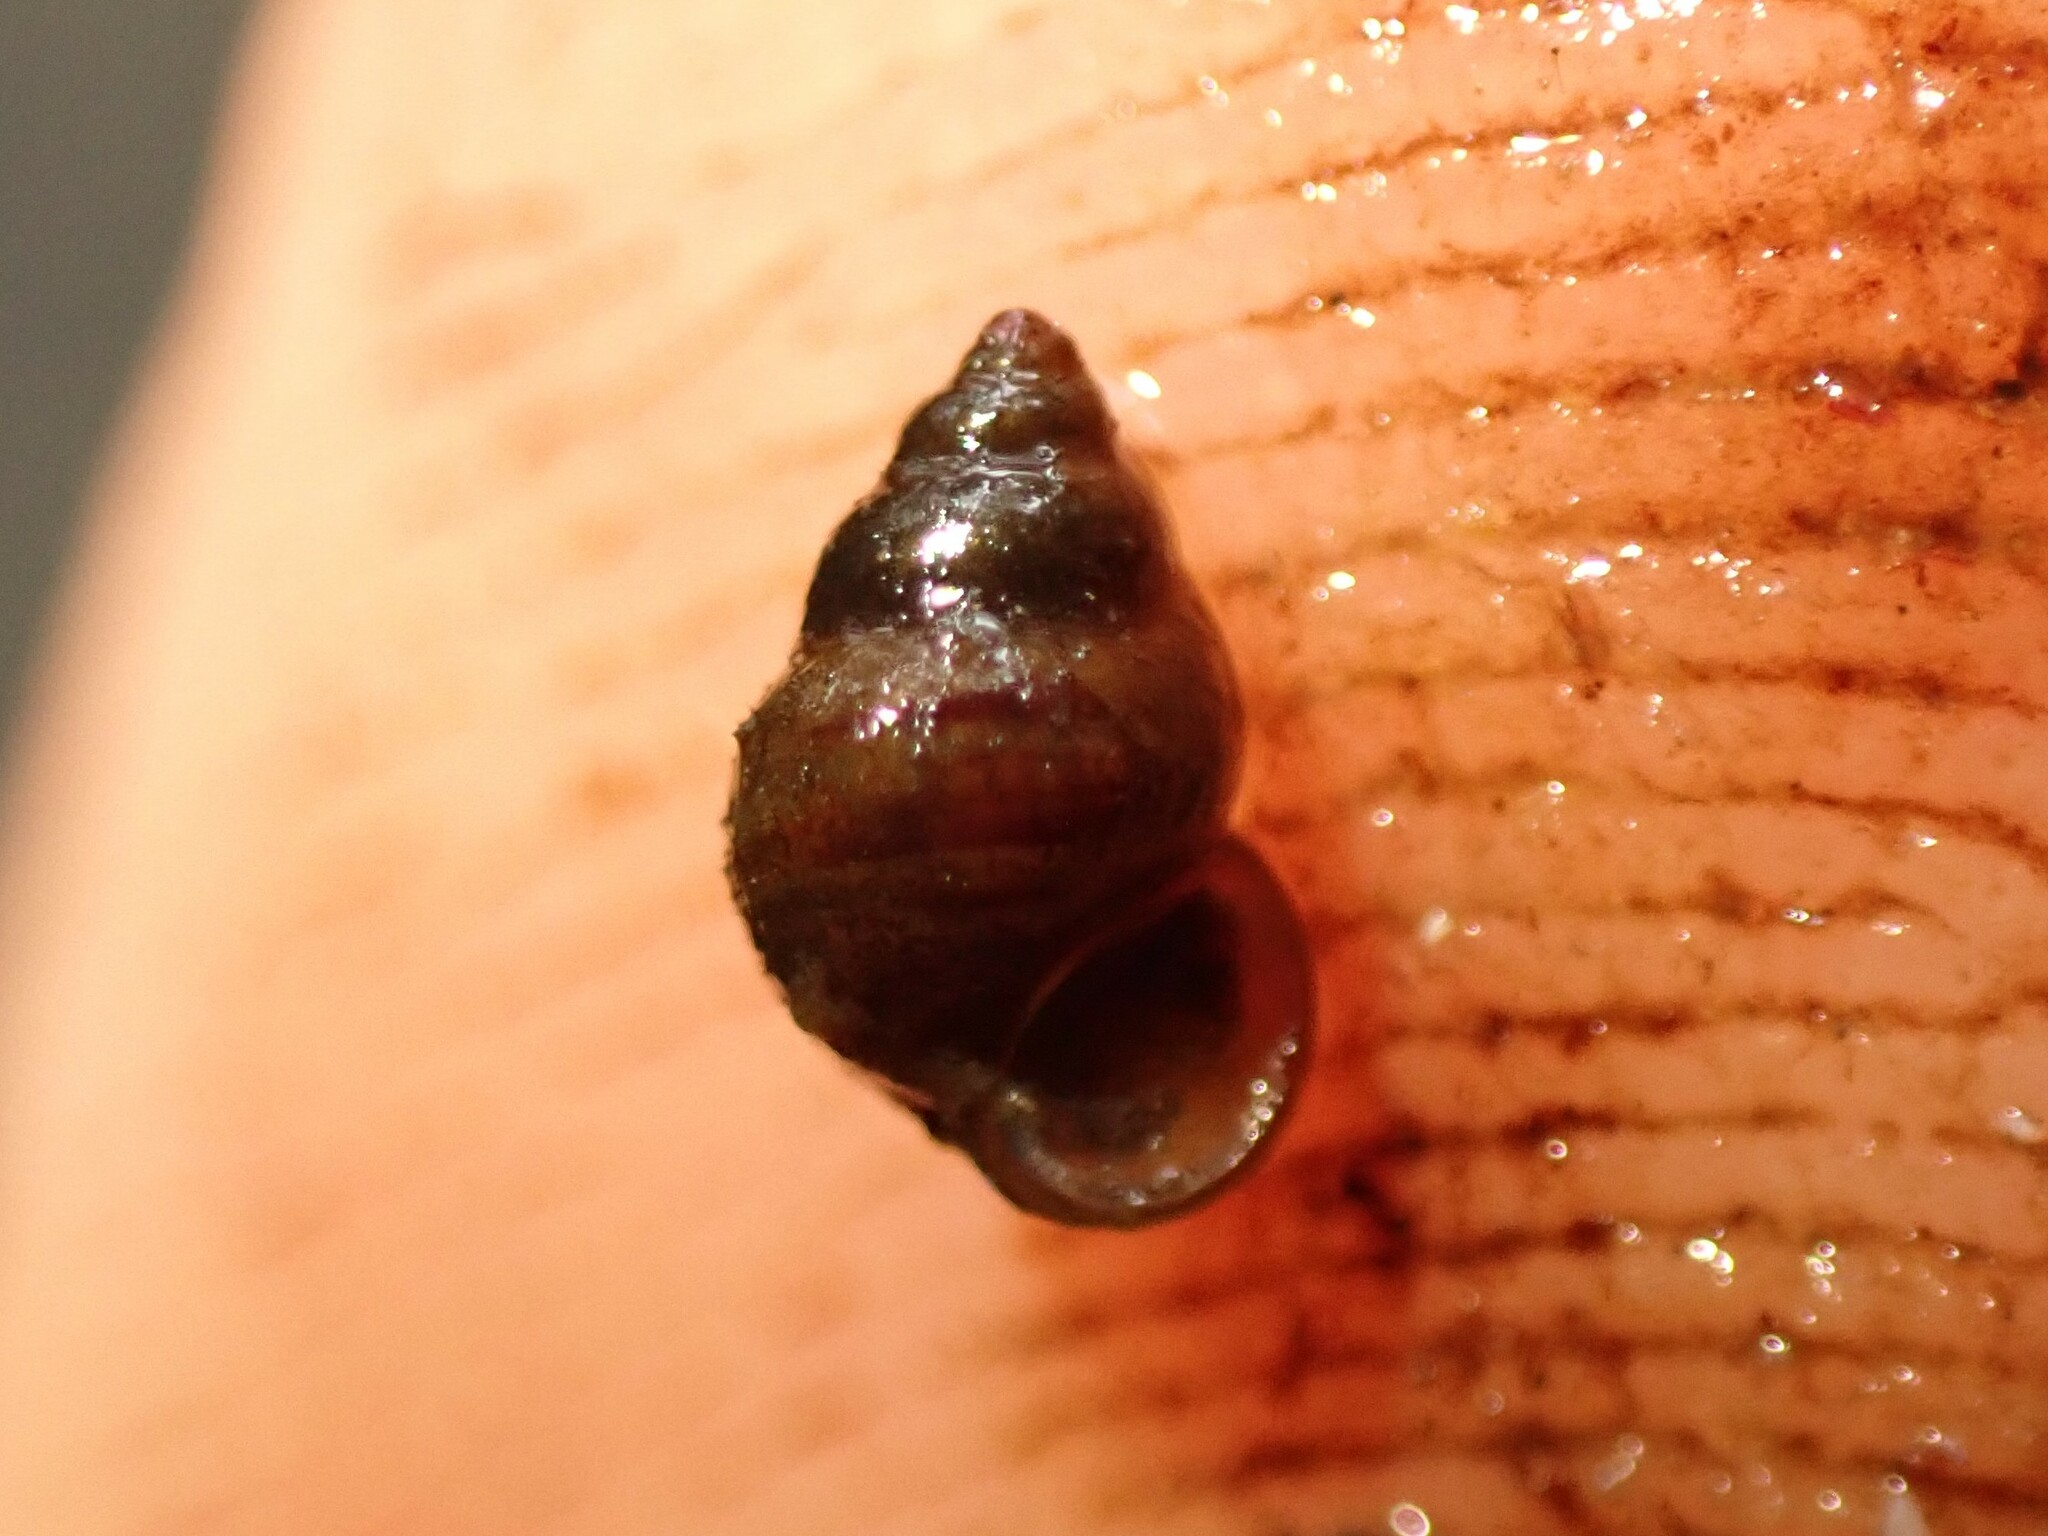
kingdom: Animalia
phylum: Mollusca
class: Gastropoda
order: Littorinimorpha
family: Tateidae
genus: Potamopyrgus
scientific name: Potamopyrgus antipodarum
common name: Jenkins' spire snail
